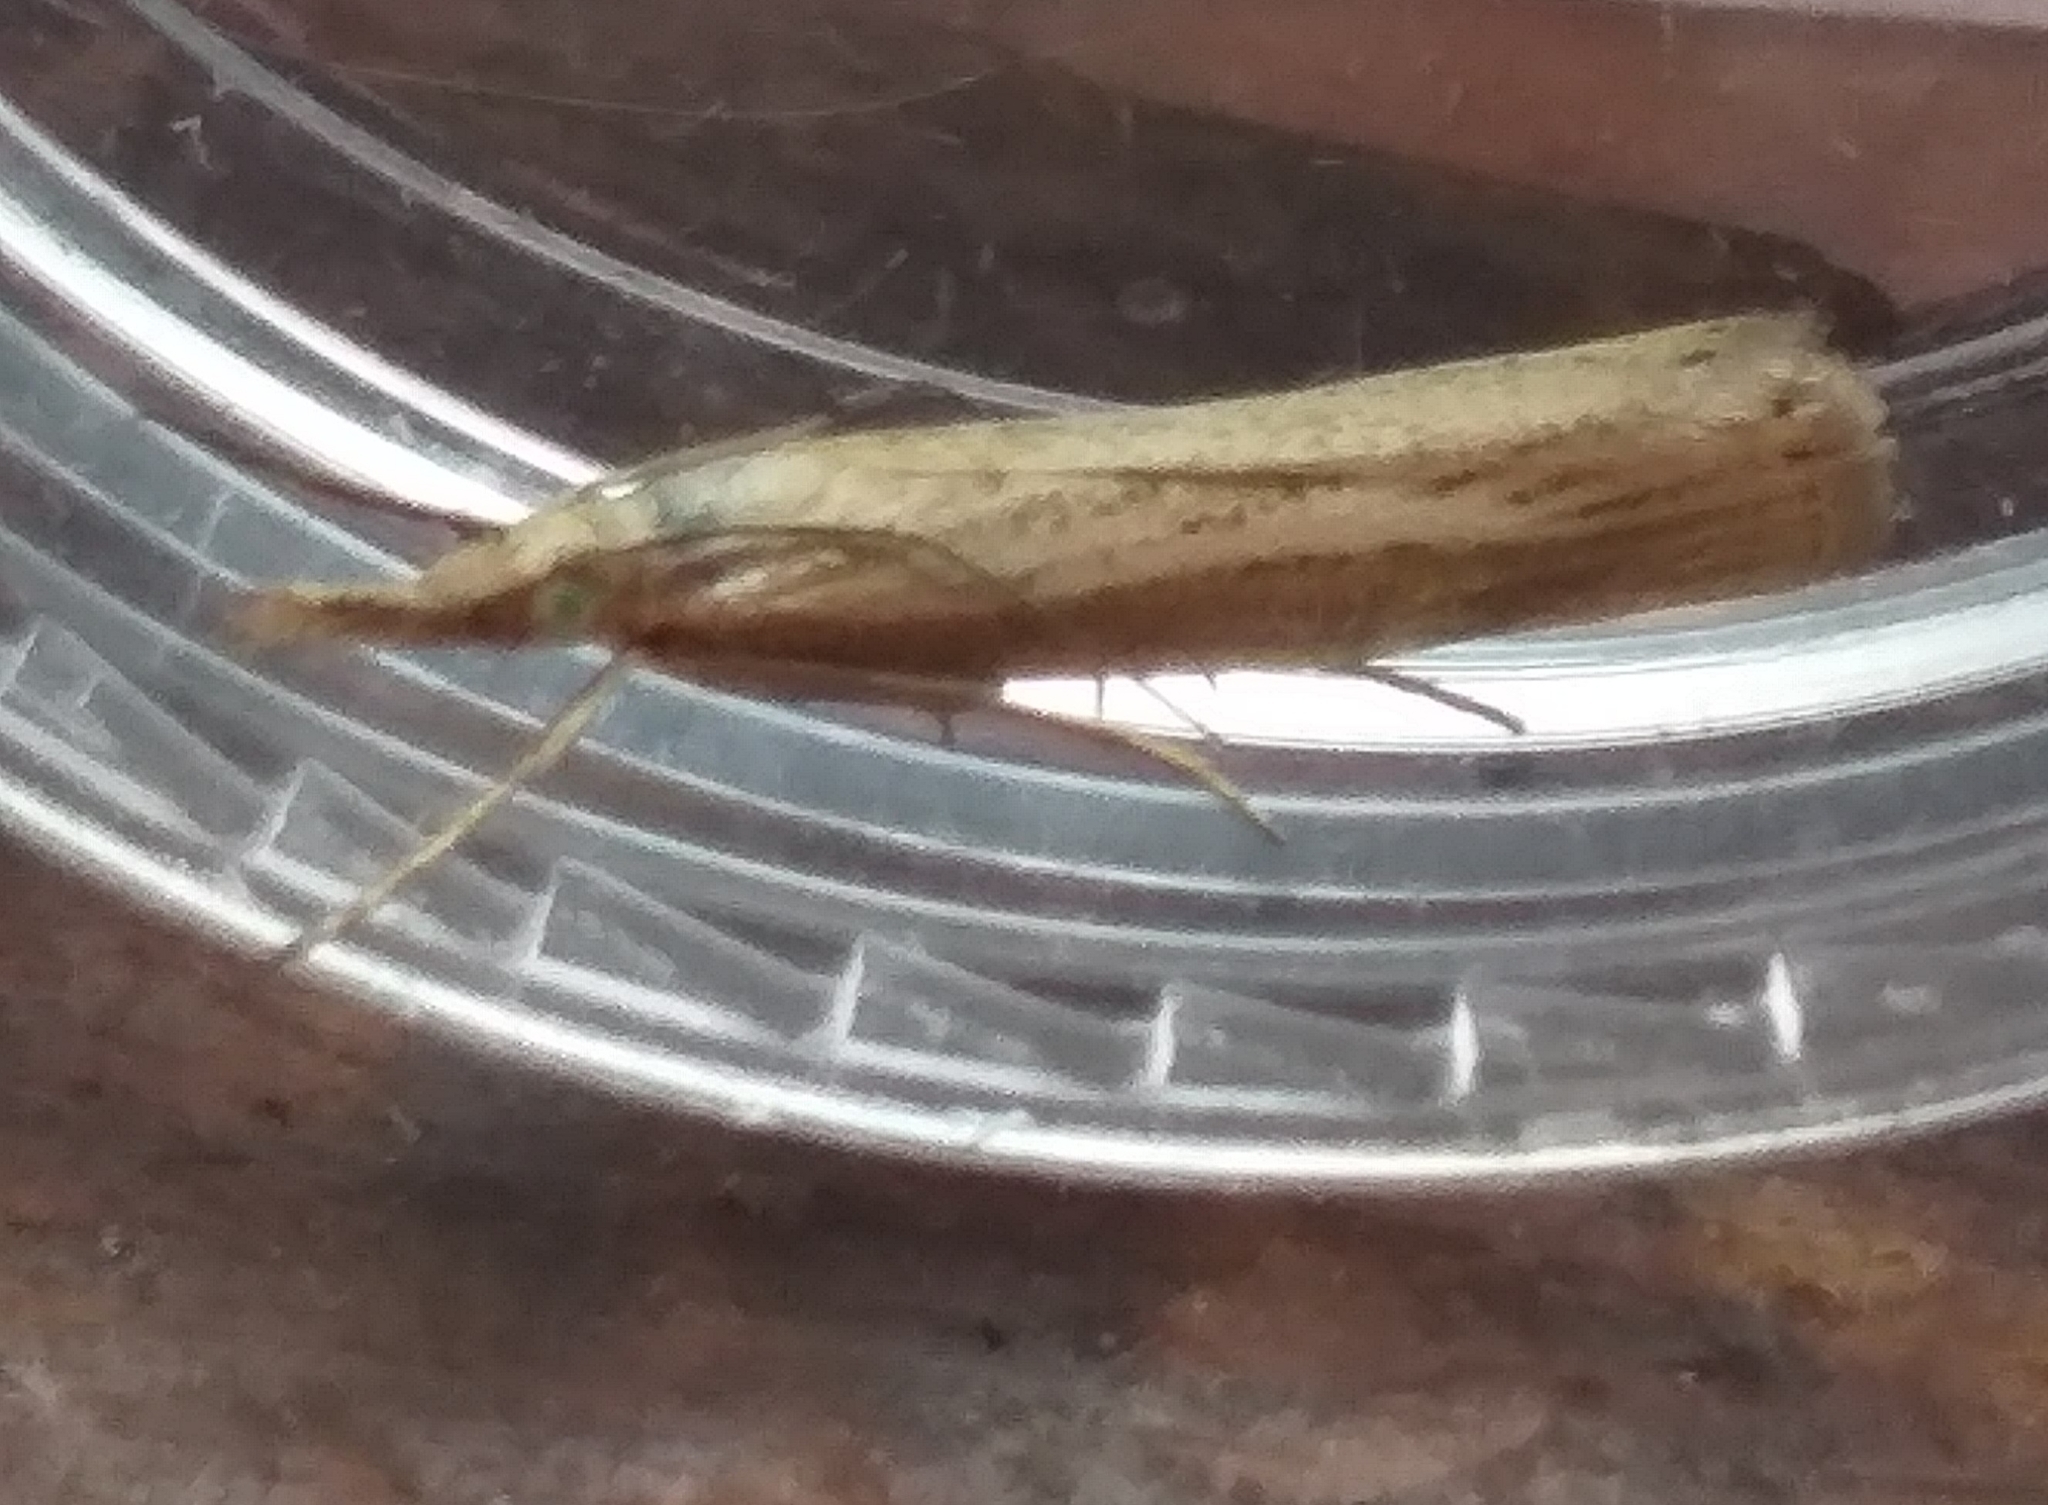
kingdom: Animalia
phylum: Arthropoda
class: Insecta
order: Lepidoptera
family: Crambidae
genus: Agriphila
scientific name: Agriphila tristellus
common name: Common grass-veneer
